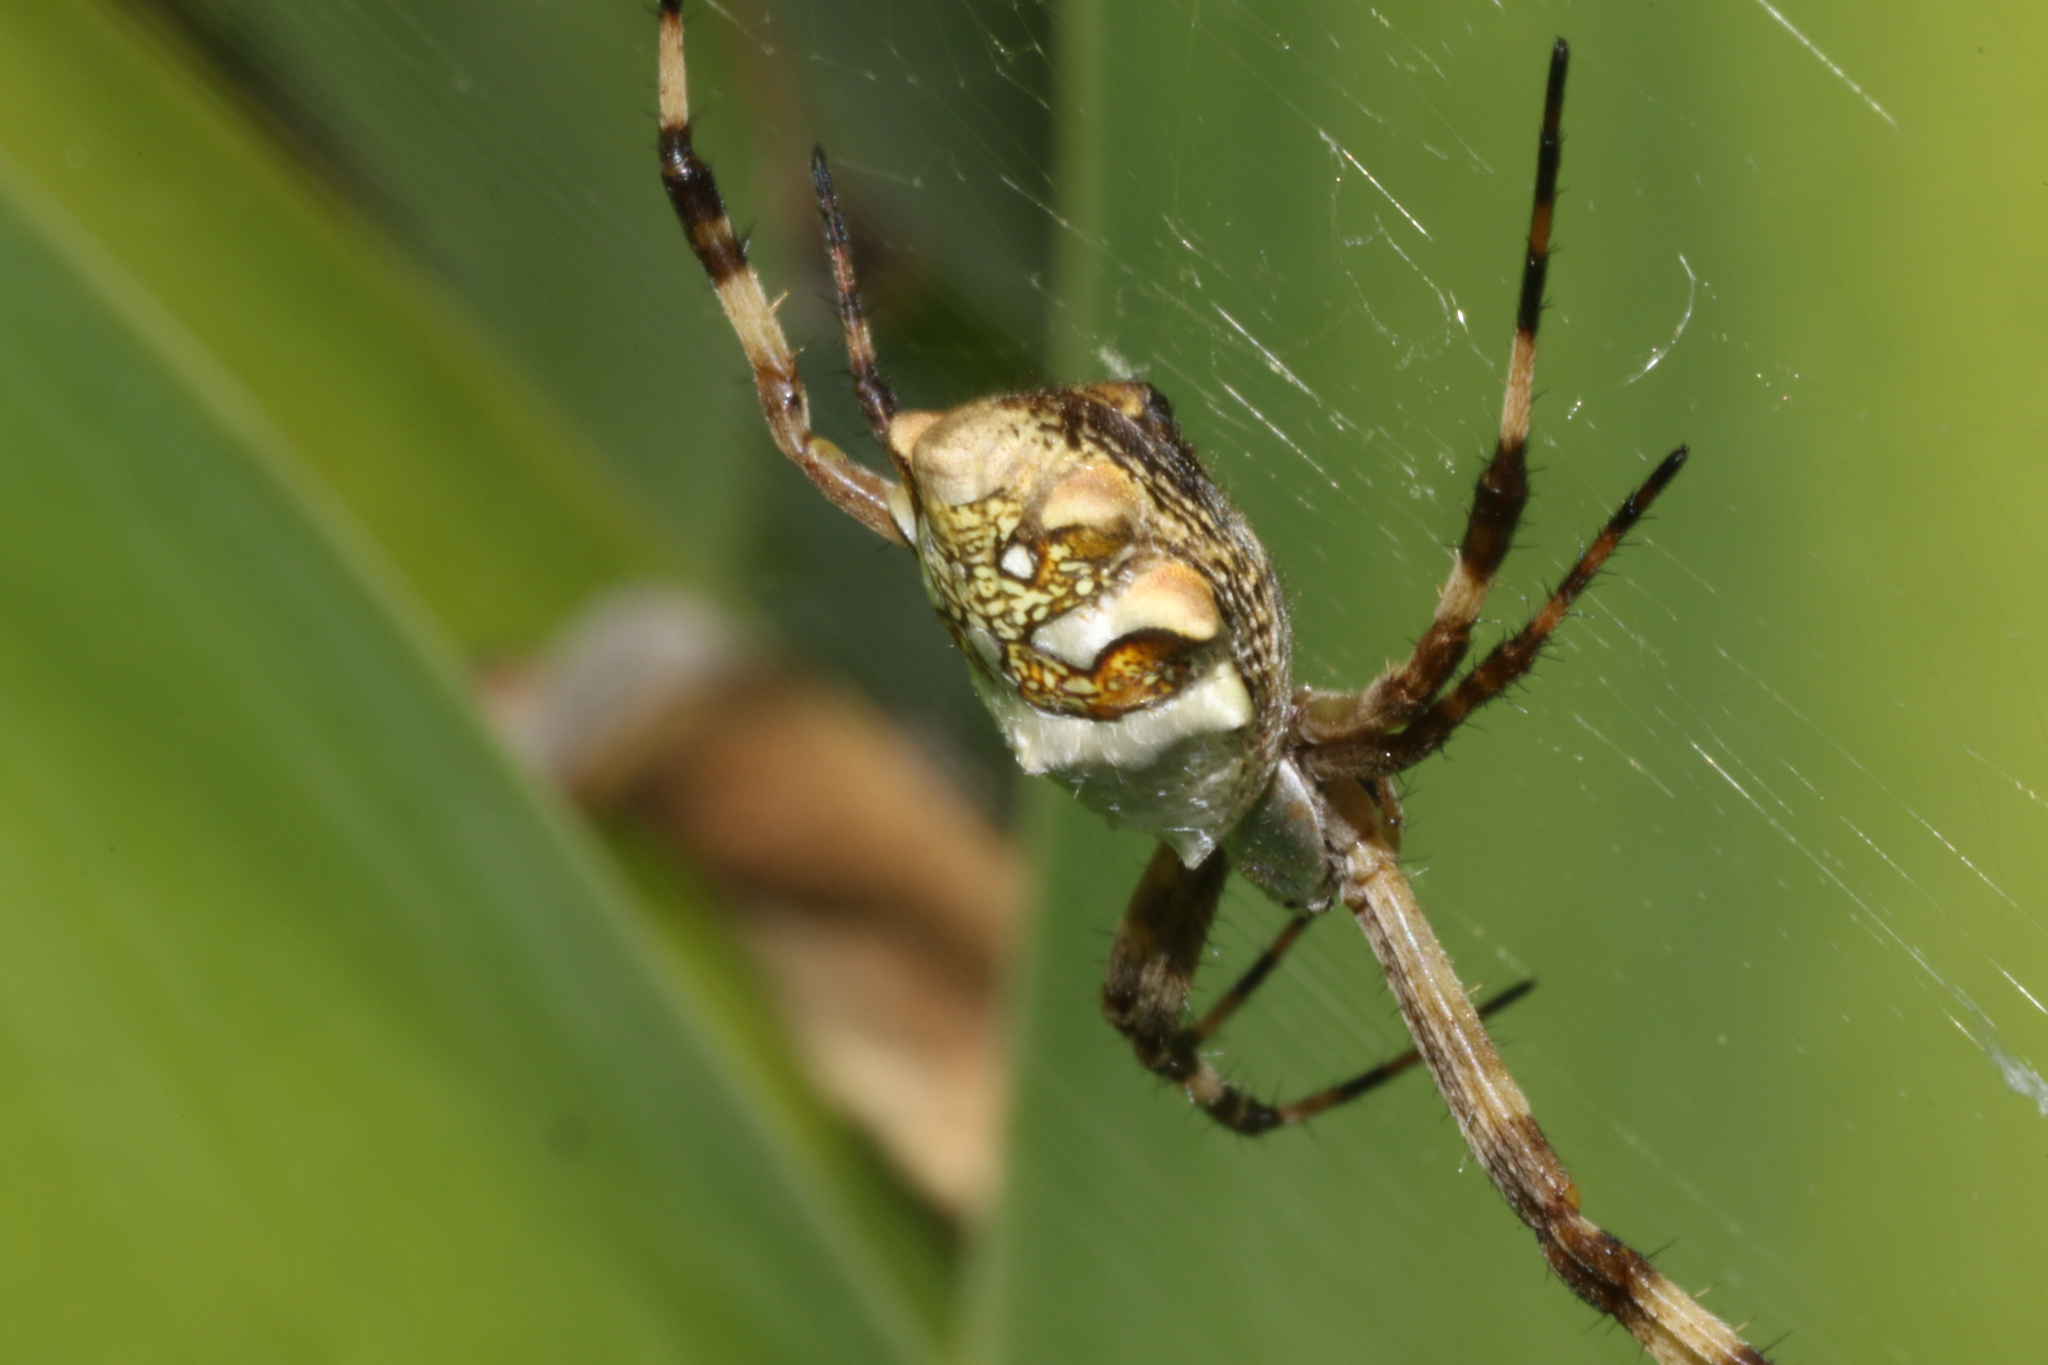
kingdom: Animalia
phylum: Arthropoda
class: Arachnida
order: Araneae
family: Araneidae
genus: Argiope
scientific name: Argiope argentata
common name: Orb weavers
